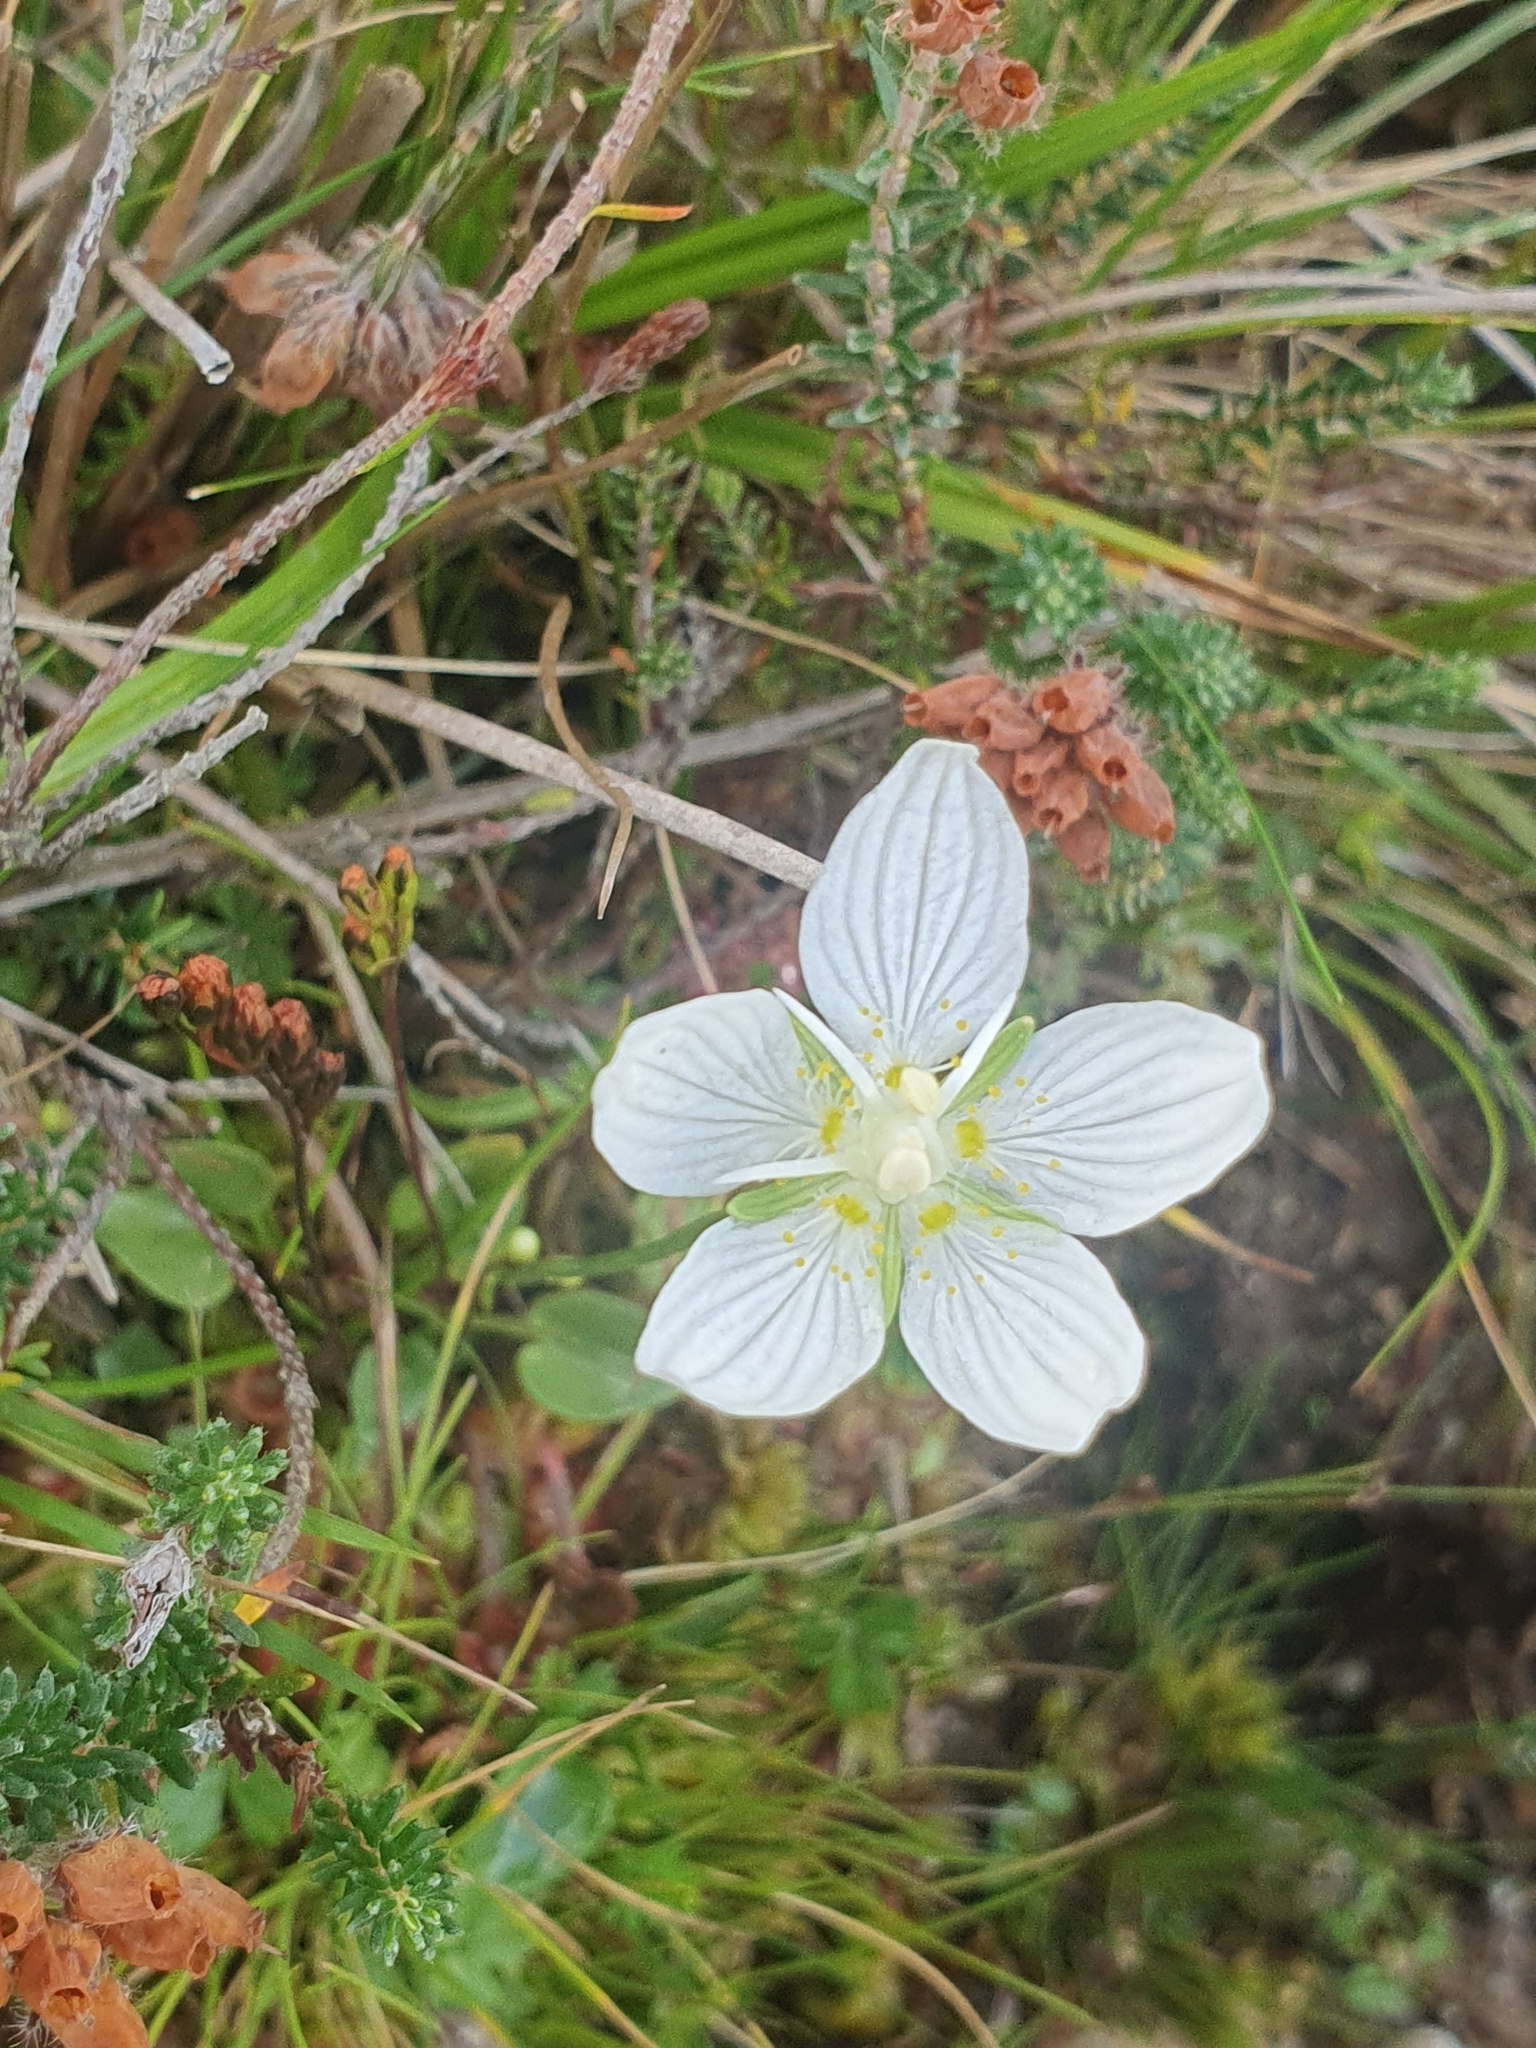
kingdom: Plantae
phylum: Tracheophyta
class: Magnoliopsida
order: Celastrales
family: Parnassiaceae
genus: Parnassia
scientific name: Parnassia palustris
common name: Grass-of-parnassus
